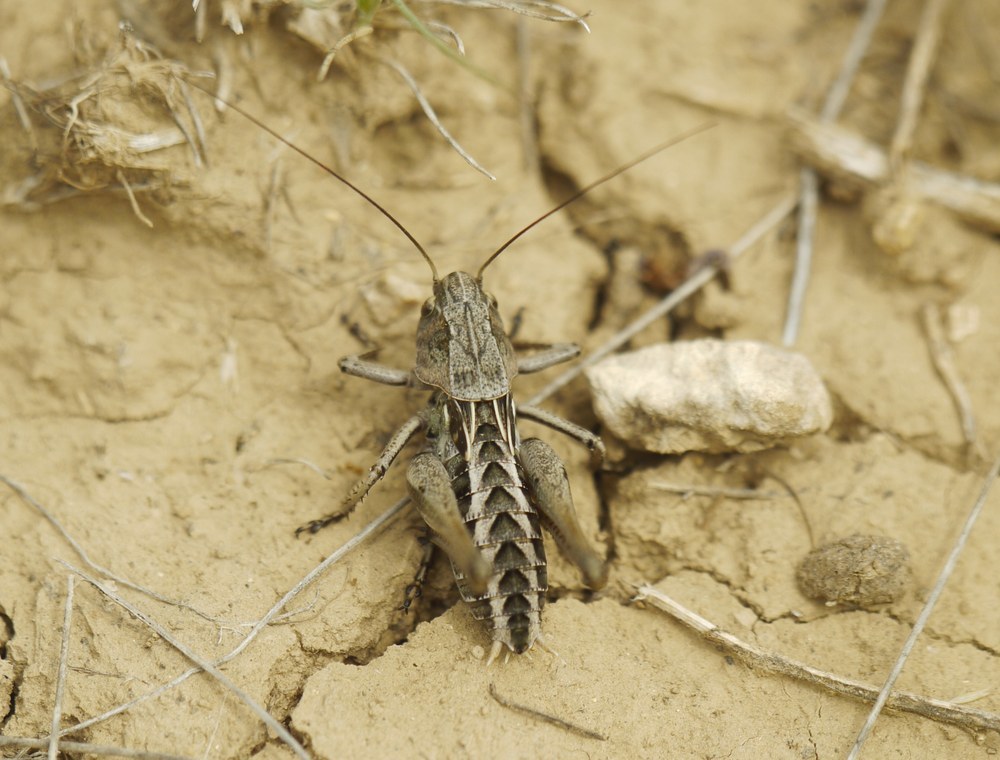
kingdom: Animalia
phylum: Arthropoda
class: Insecta
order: Orthoptera
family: Tettigoniidae
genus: Decticus
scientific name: Decticus verrucivorus
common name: Wart-biter
